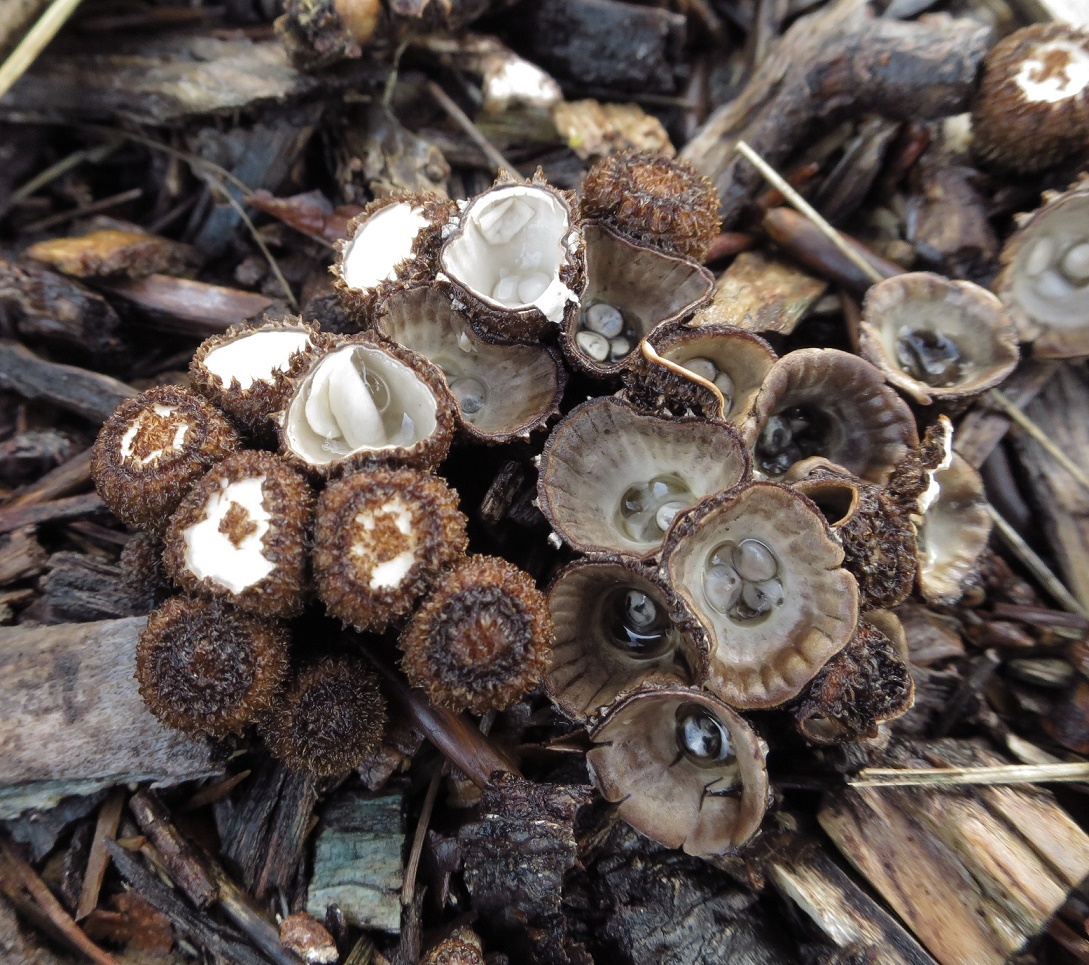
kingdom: Fungi
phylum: Basidiomycota
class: Agaricomycetes
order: Agaricales
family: Agaricaceae
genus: Cyathus
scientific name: Cyathus striatus
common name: Fluted bird's nest
